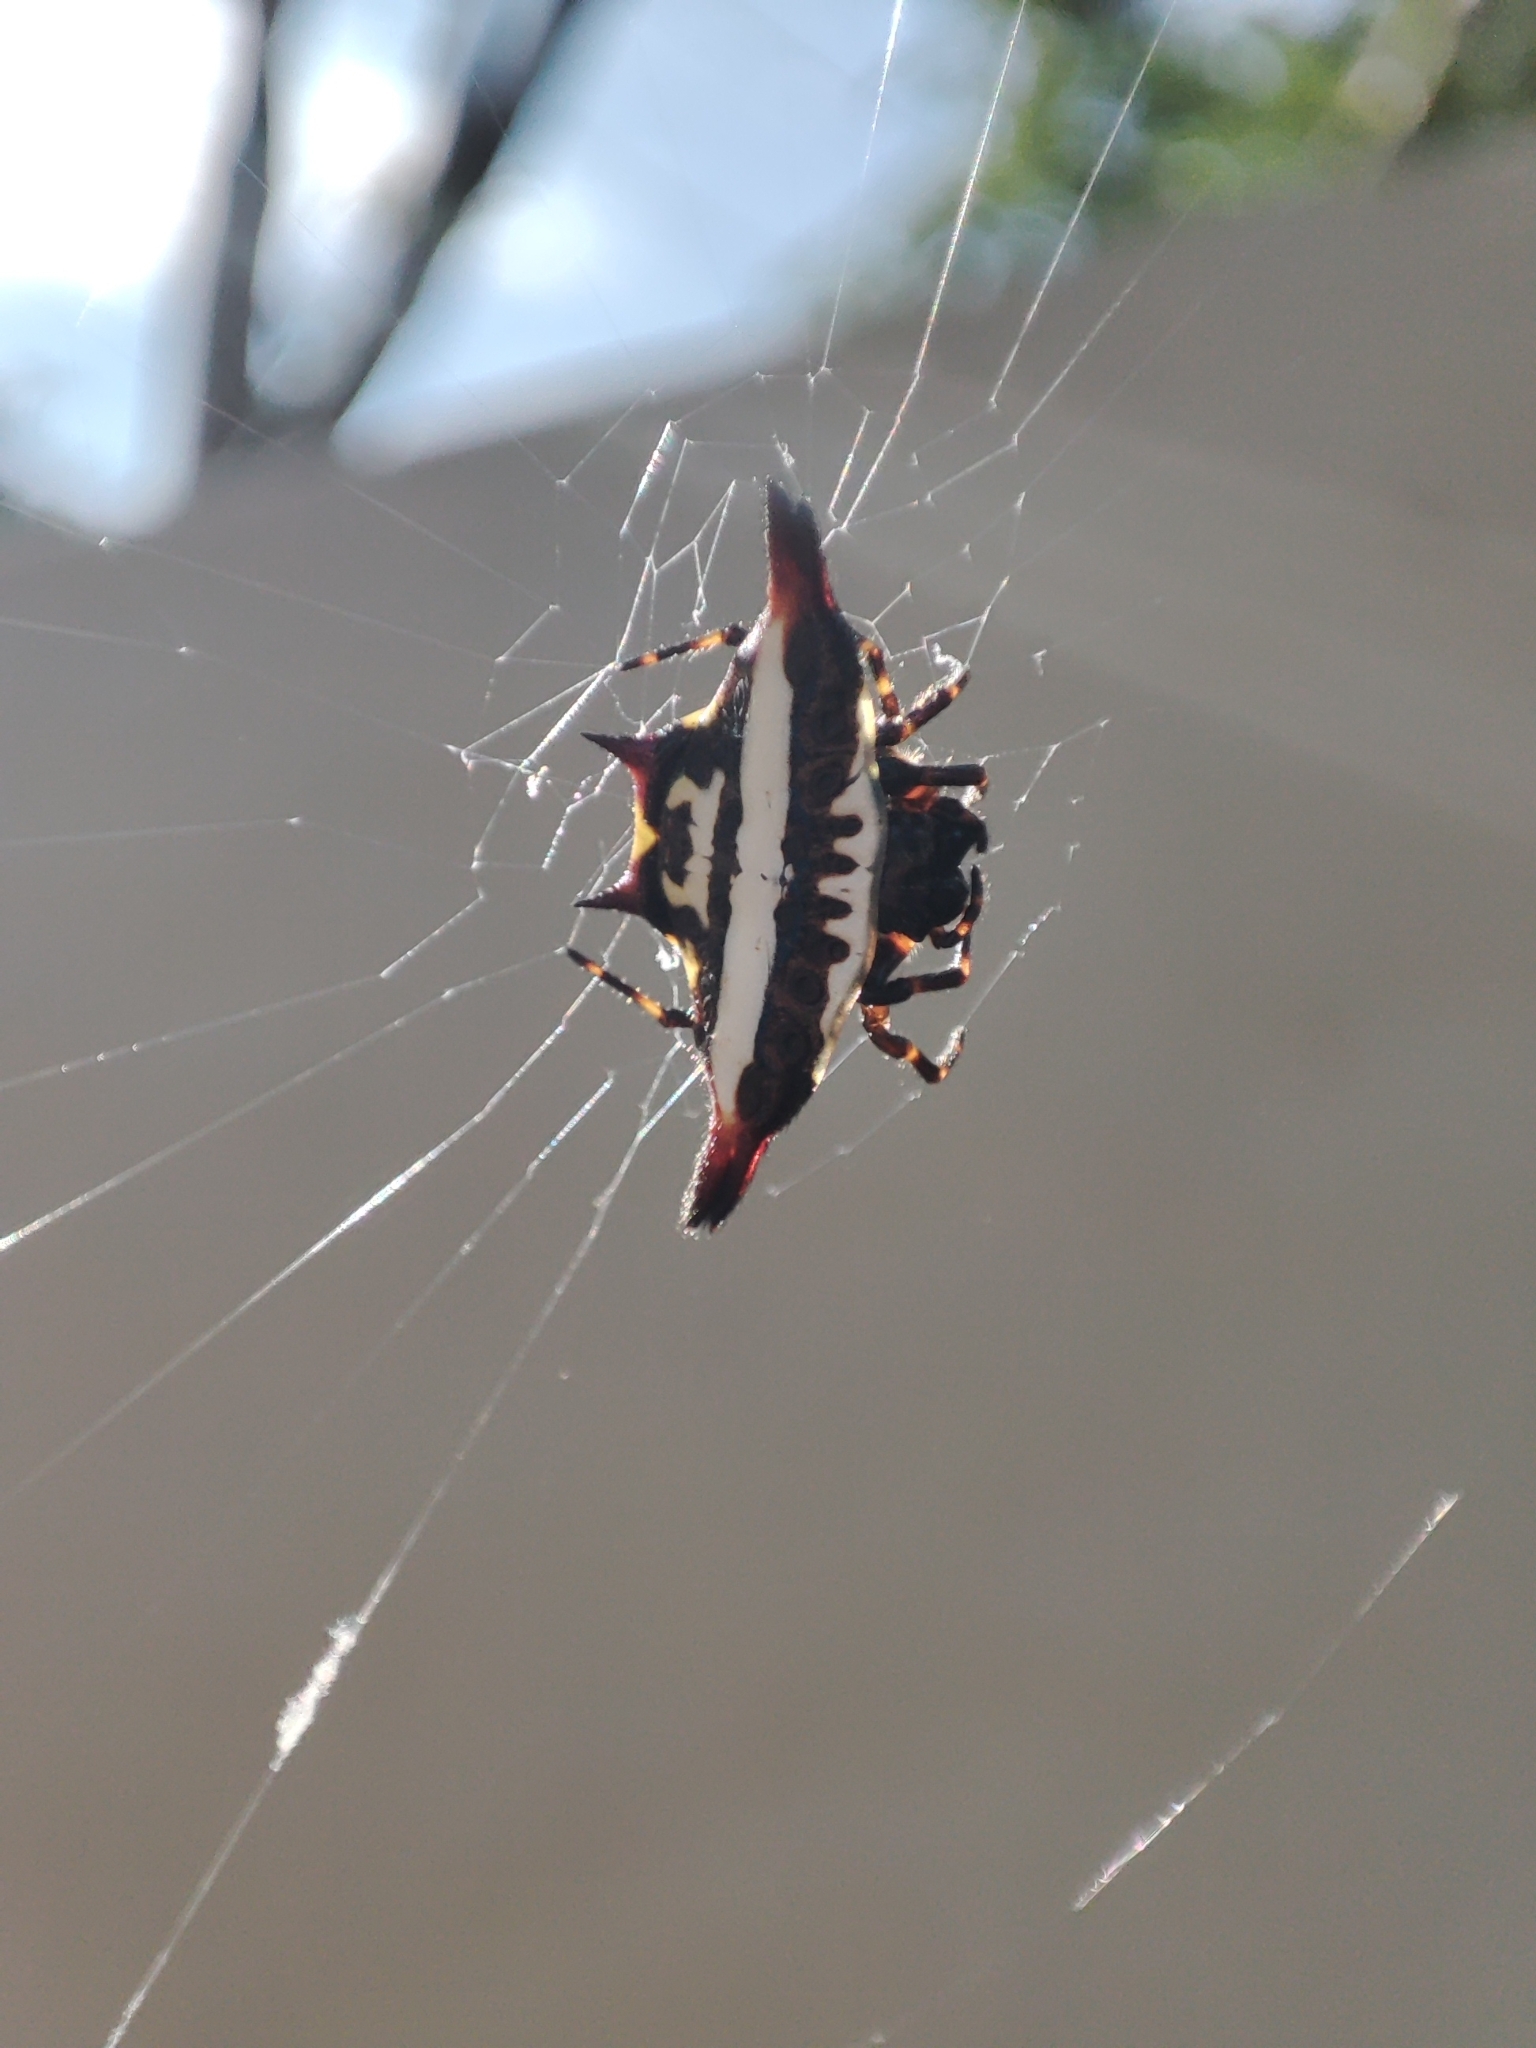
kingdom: Animalia
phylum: Arthropoda
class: Arachnida
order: Araneae
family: Araneidae
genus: Gasteracantha
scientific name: Gasteracantha geminata
